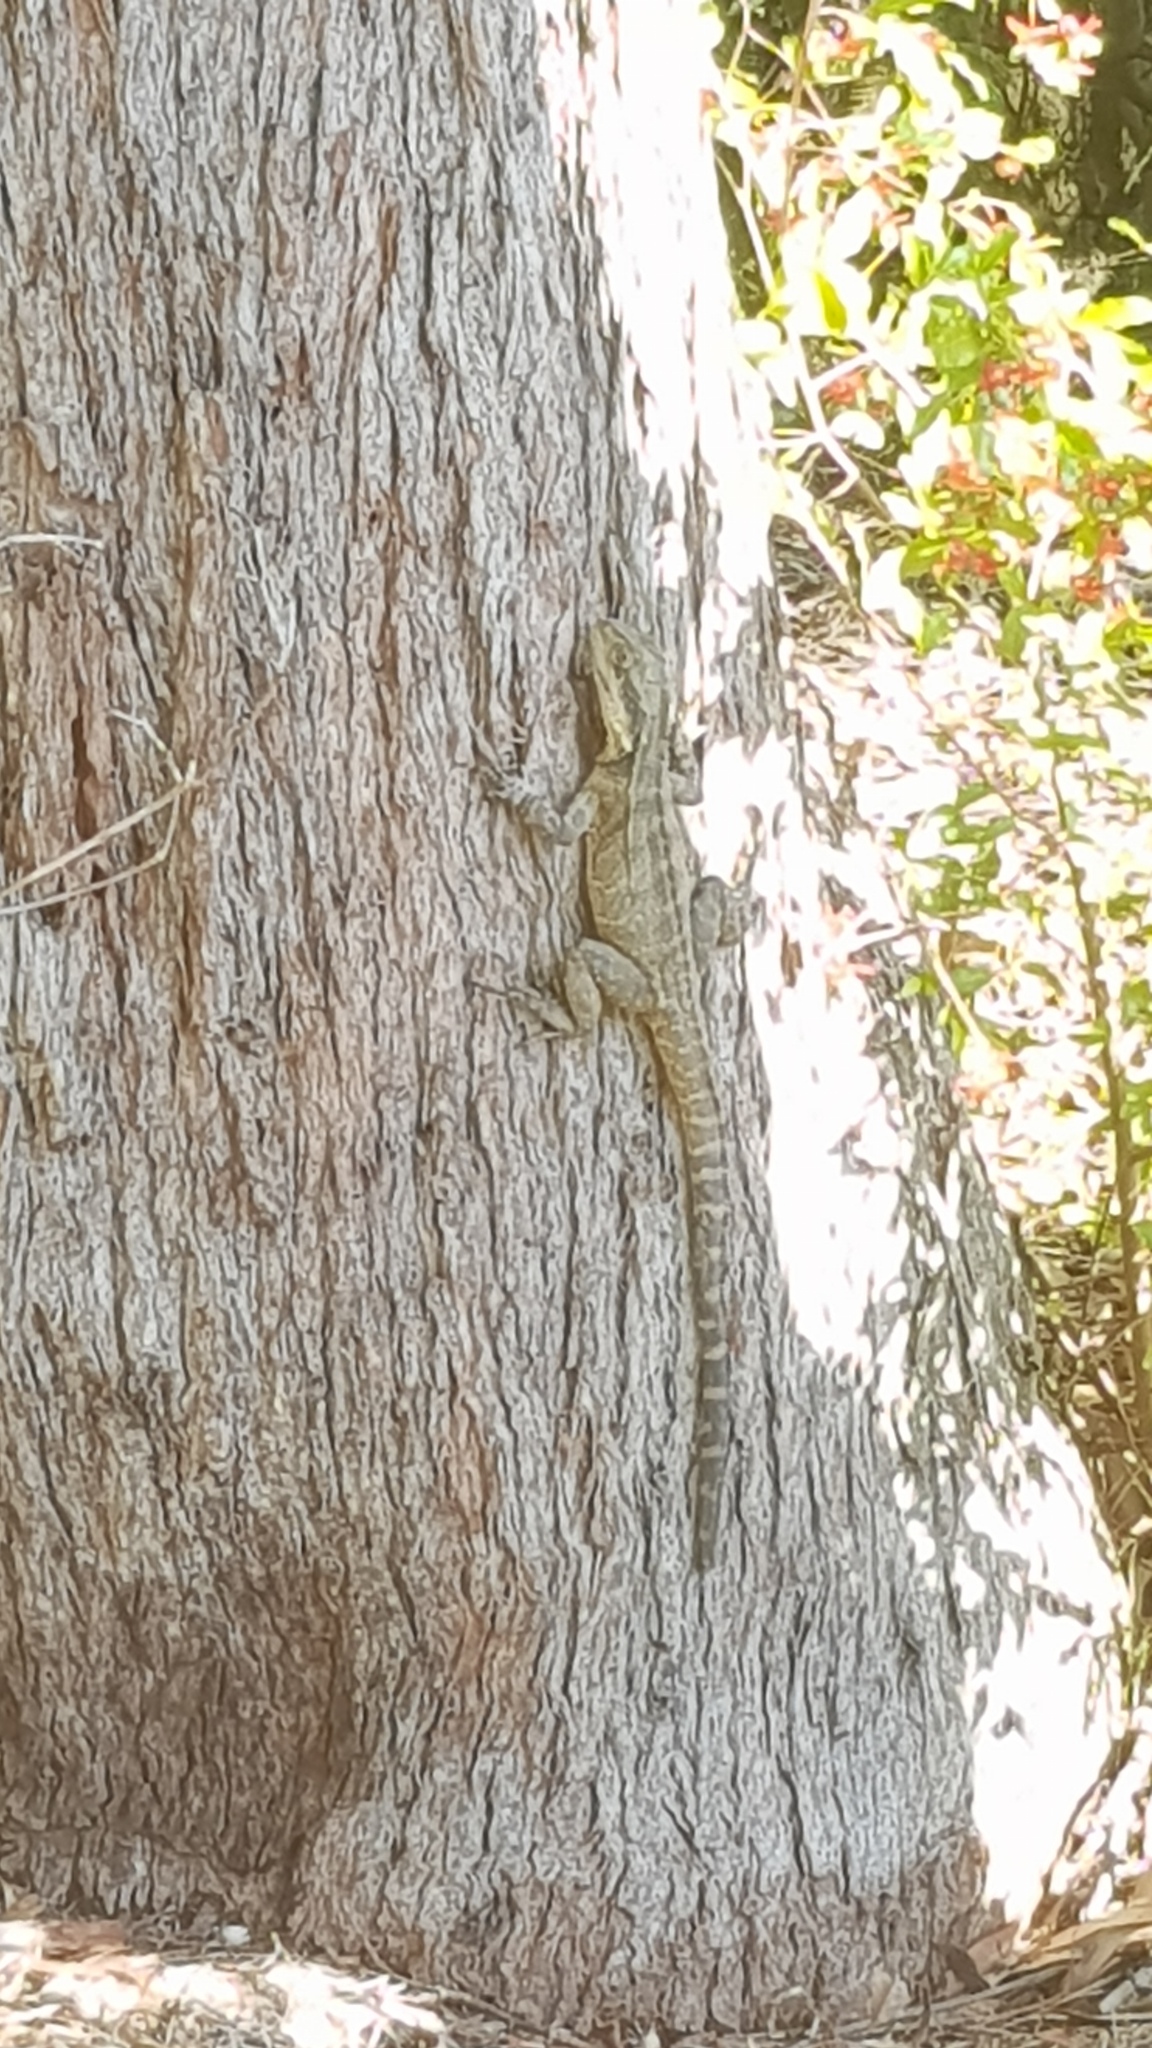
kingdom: Animalia
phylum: Chordata
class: Squamata
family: Agamidae
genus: Intellagama
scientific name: Intellagama lesueurii
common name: Eastern water dragon
